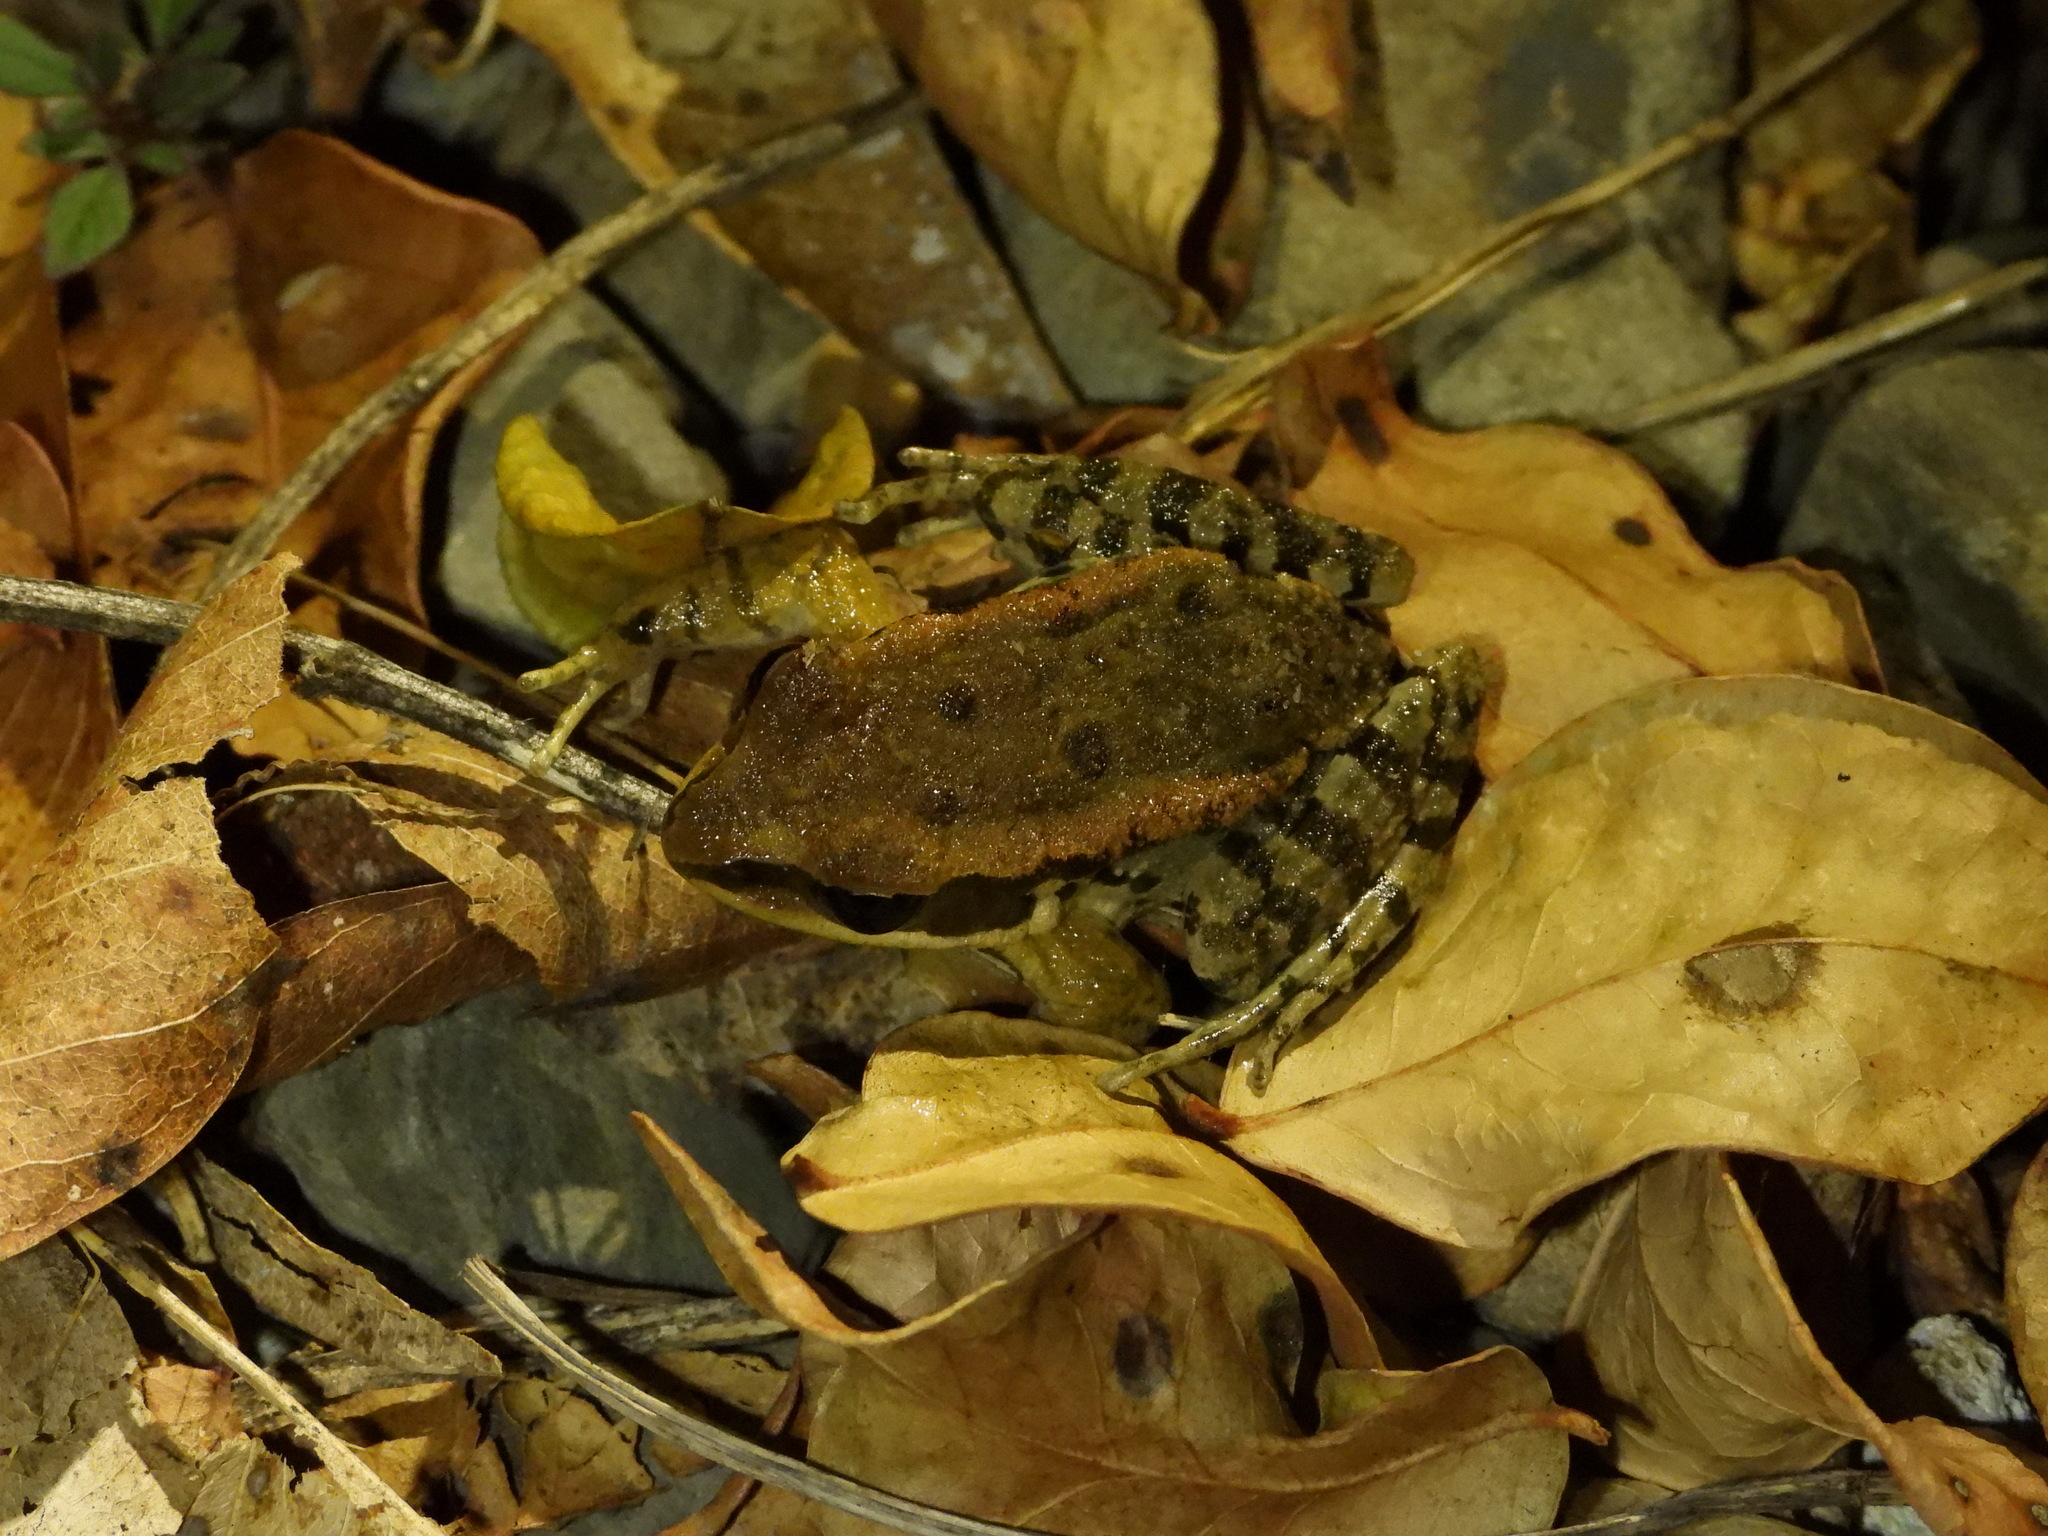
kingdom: Animalia
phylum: Chordata
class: Amphibia
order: Anura
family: Ranidae
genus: Hylarana
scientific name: Hylarana latouchii
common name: Broad-folded frog
